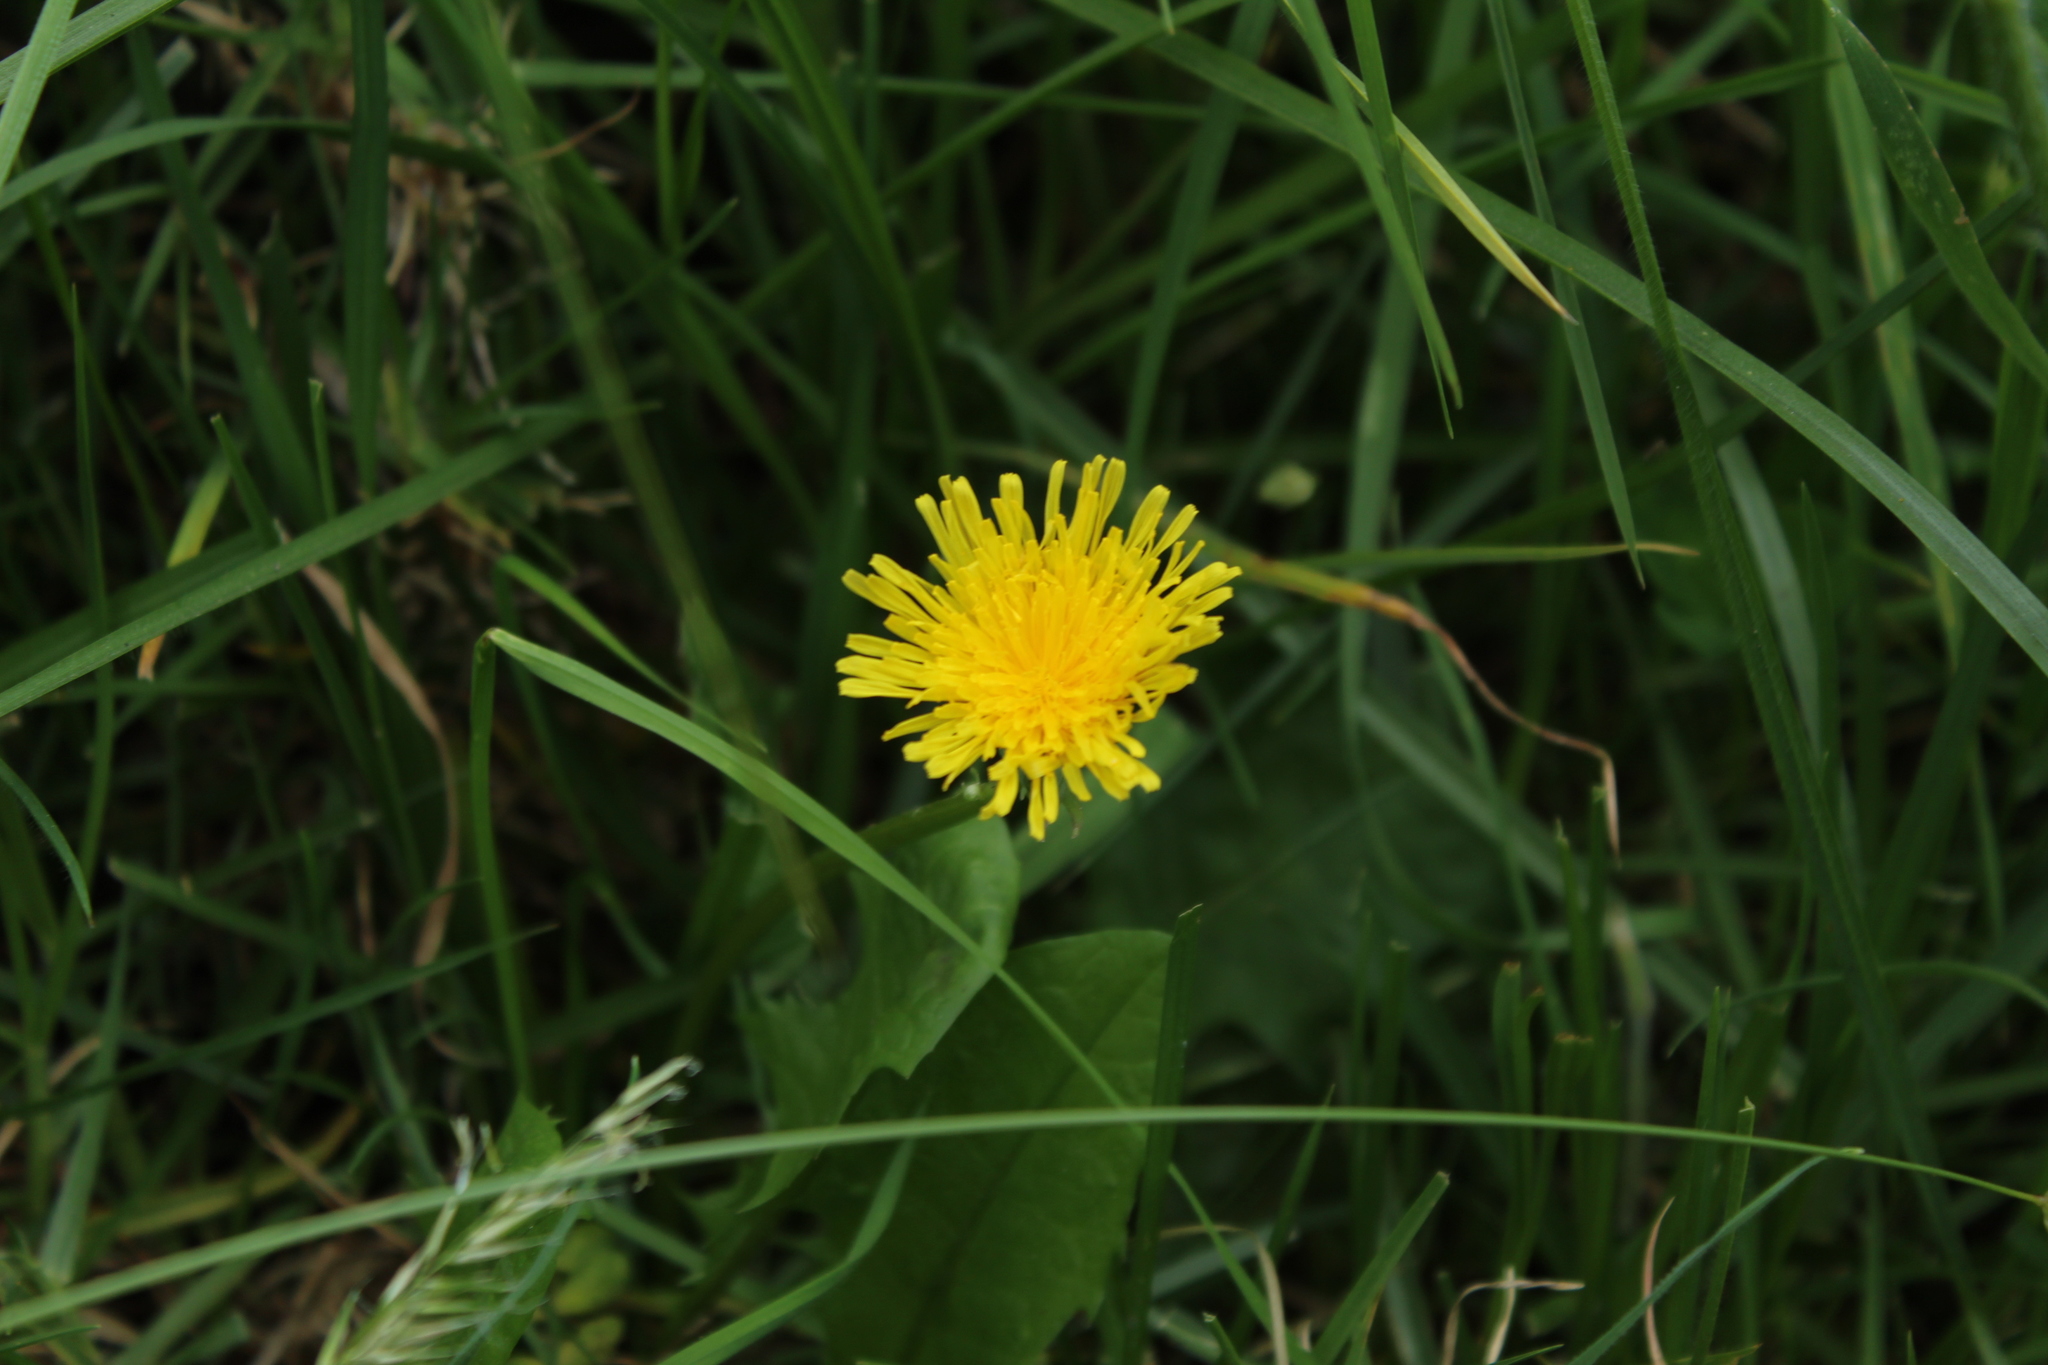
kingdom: Plantae
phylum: Tracheophyta
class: Magnoliopsida
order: Asterales
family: Asteraceae
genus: Taraxacum
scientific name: Taraxacum officinale
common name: Common dandelion
